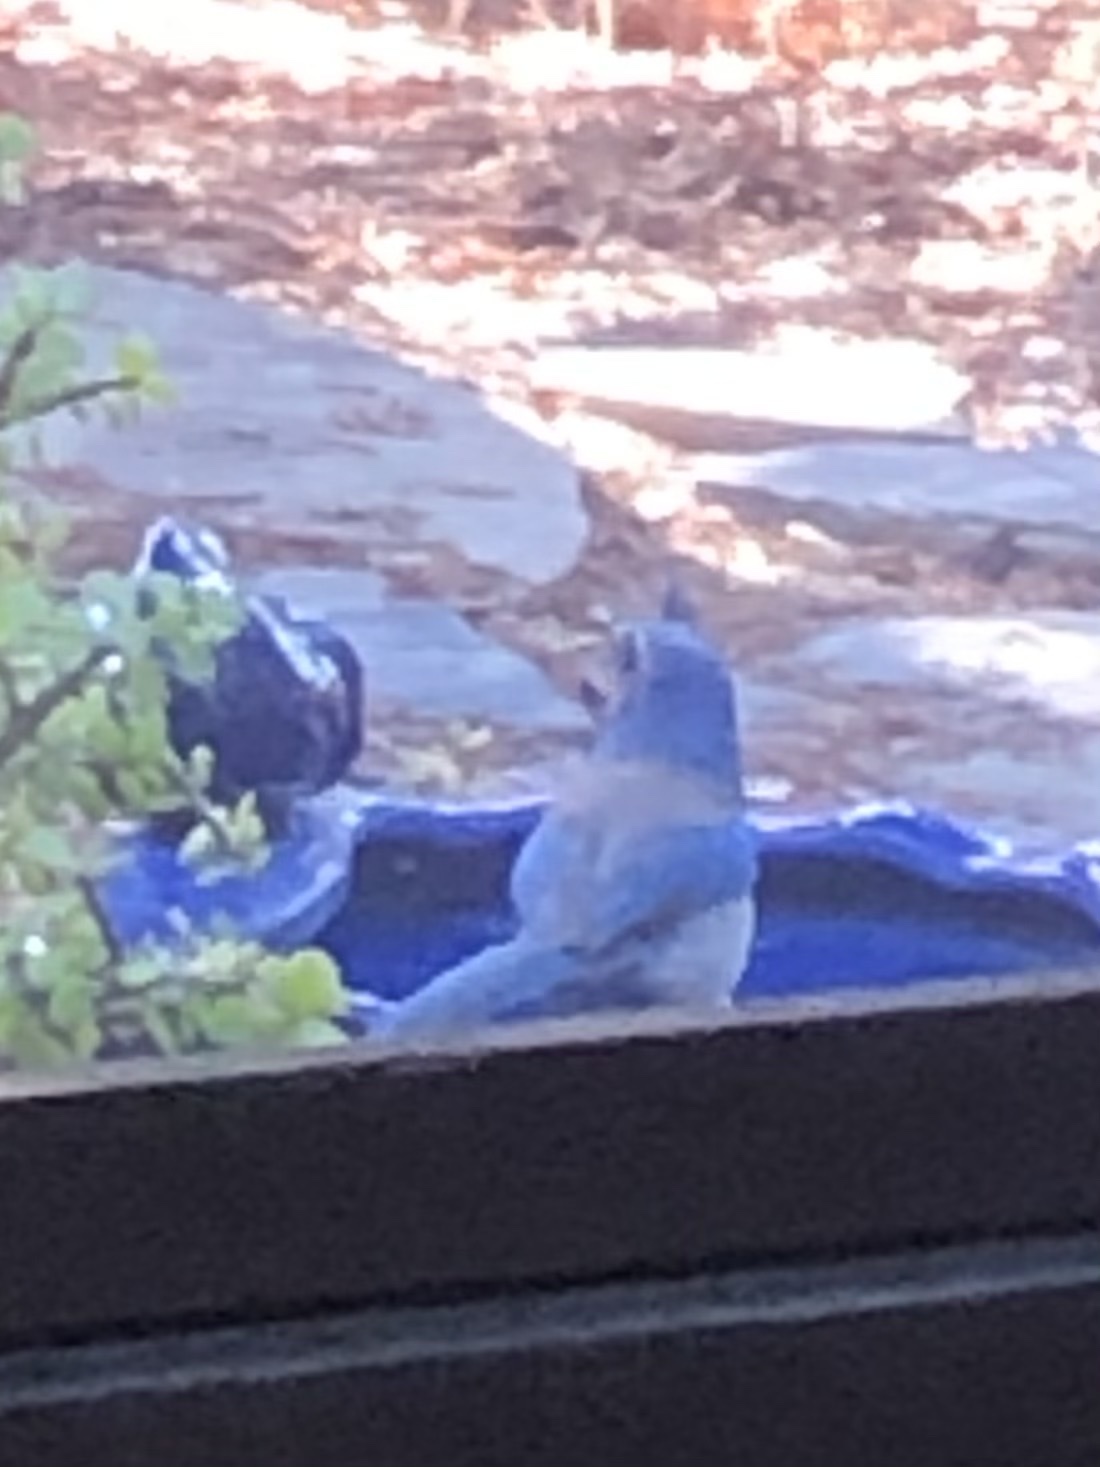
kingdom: Animalia
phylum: Chordata
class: Aves
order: Passeriformes
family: Corvidae
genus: Aphelocoma
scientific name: Aphelocoma californica
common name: California scrub-jay
